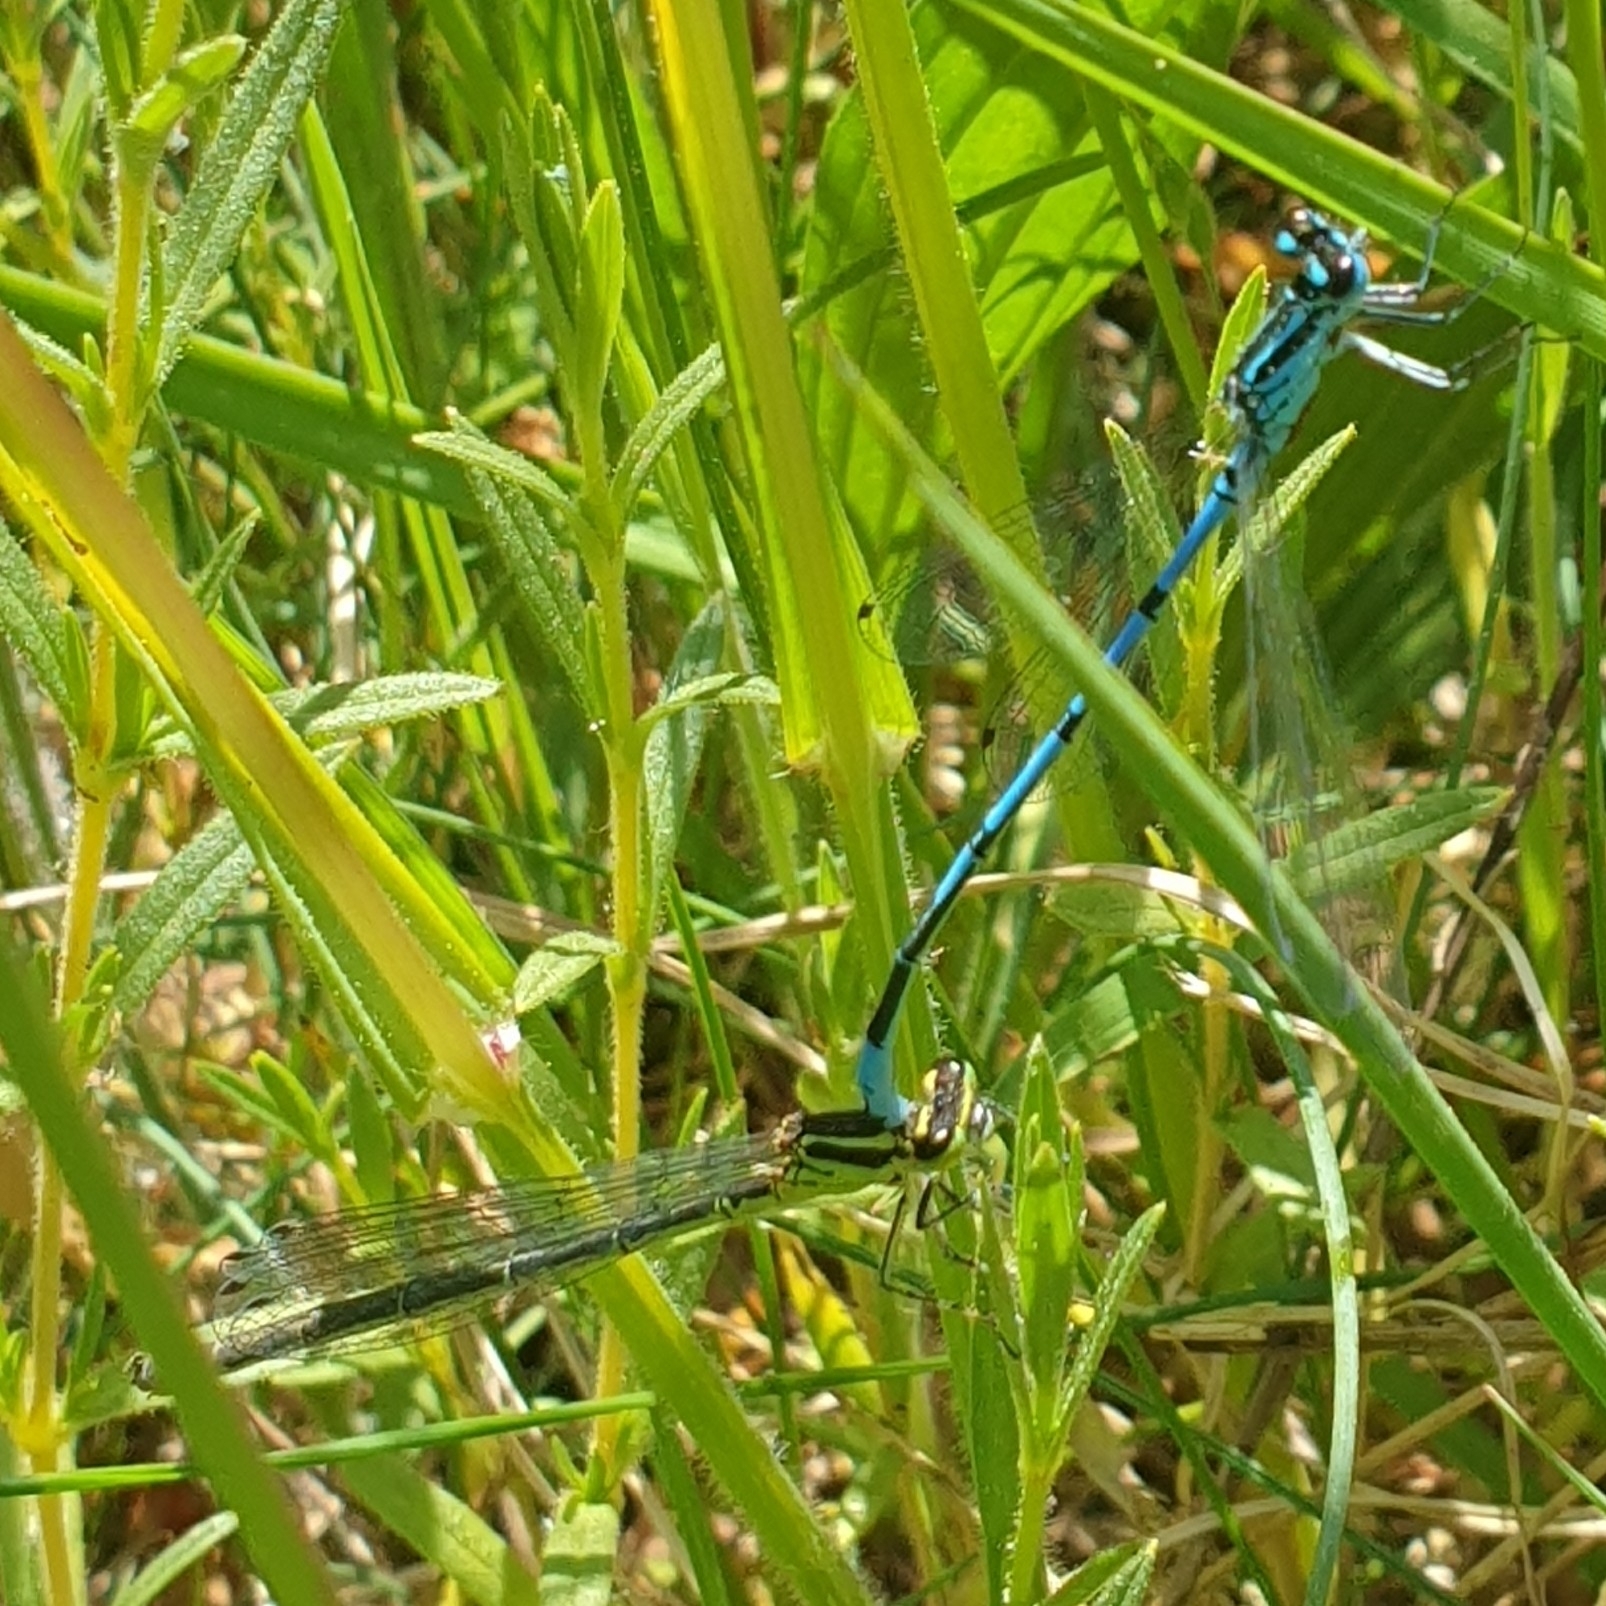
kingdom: Animalia
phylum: Arthropoda
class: Insecta
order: Odonata
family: Coenagrionidae
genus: Coenagrion
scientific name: Coenagrion puella
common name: Azure damselfly
